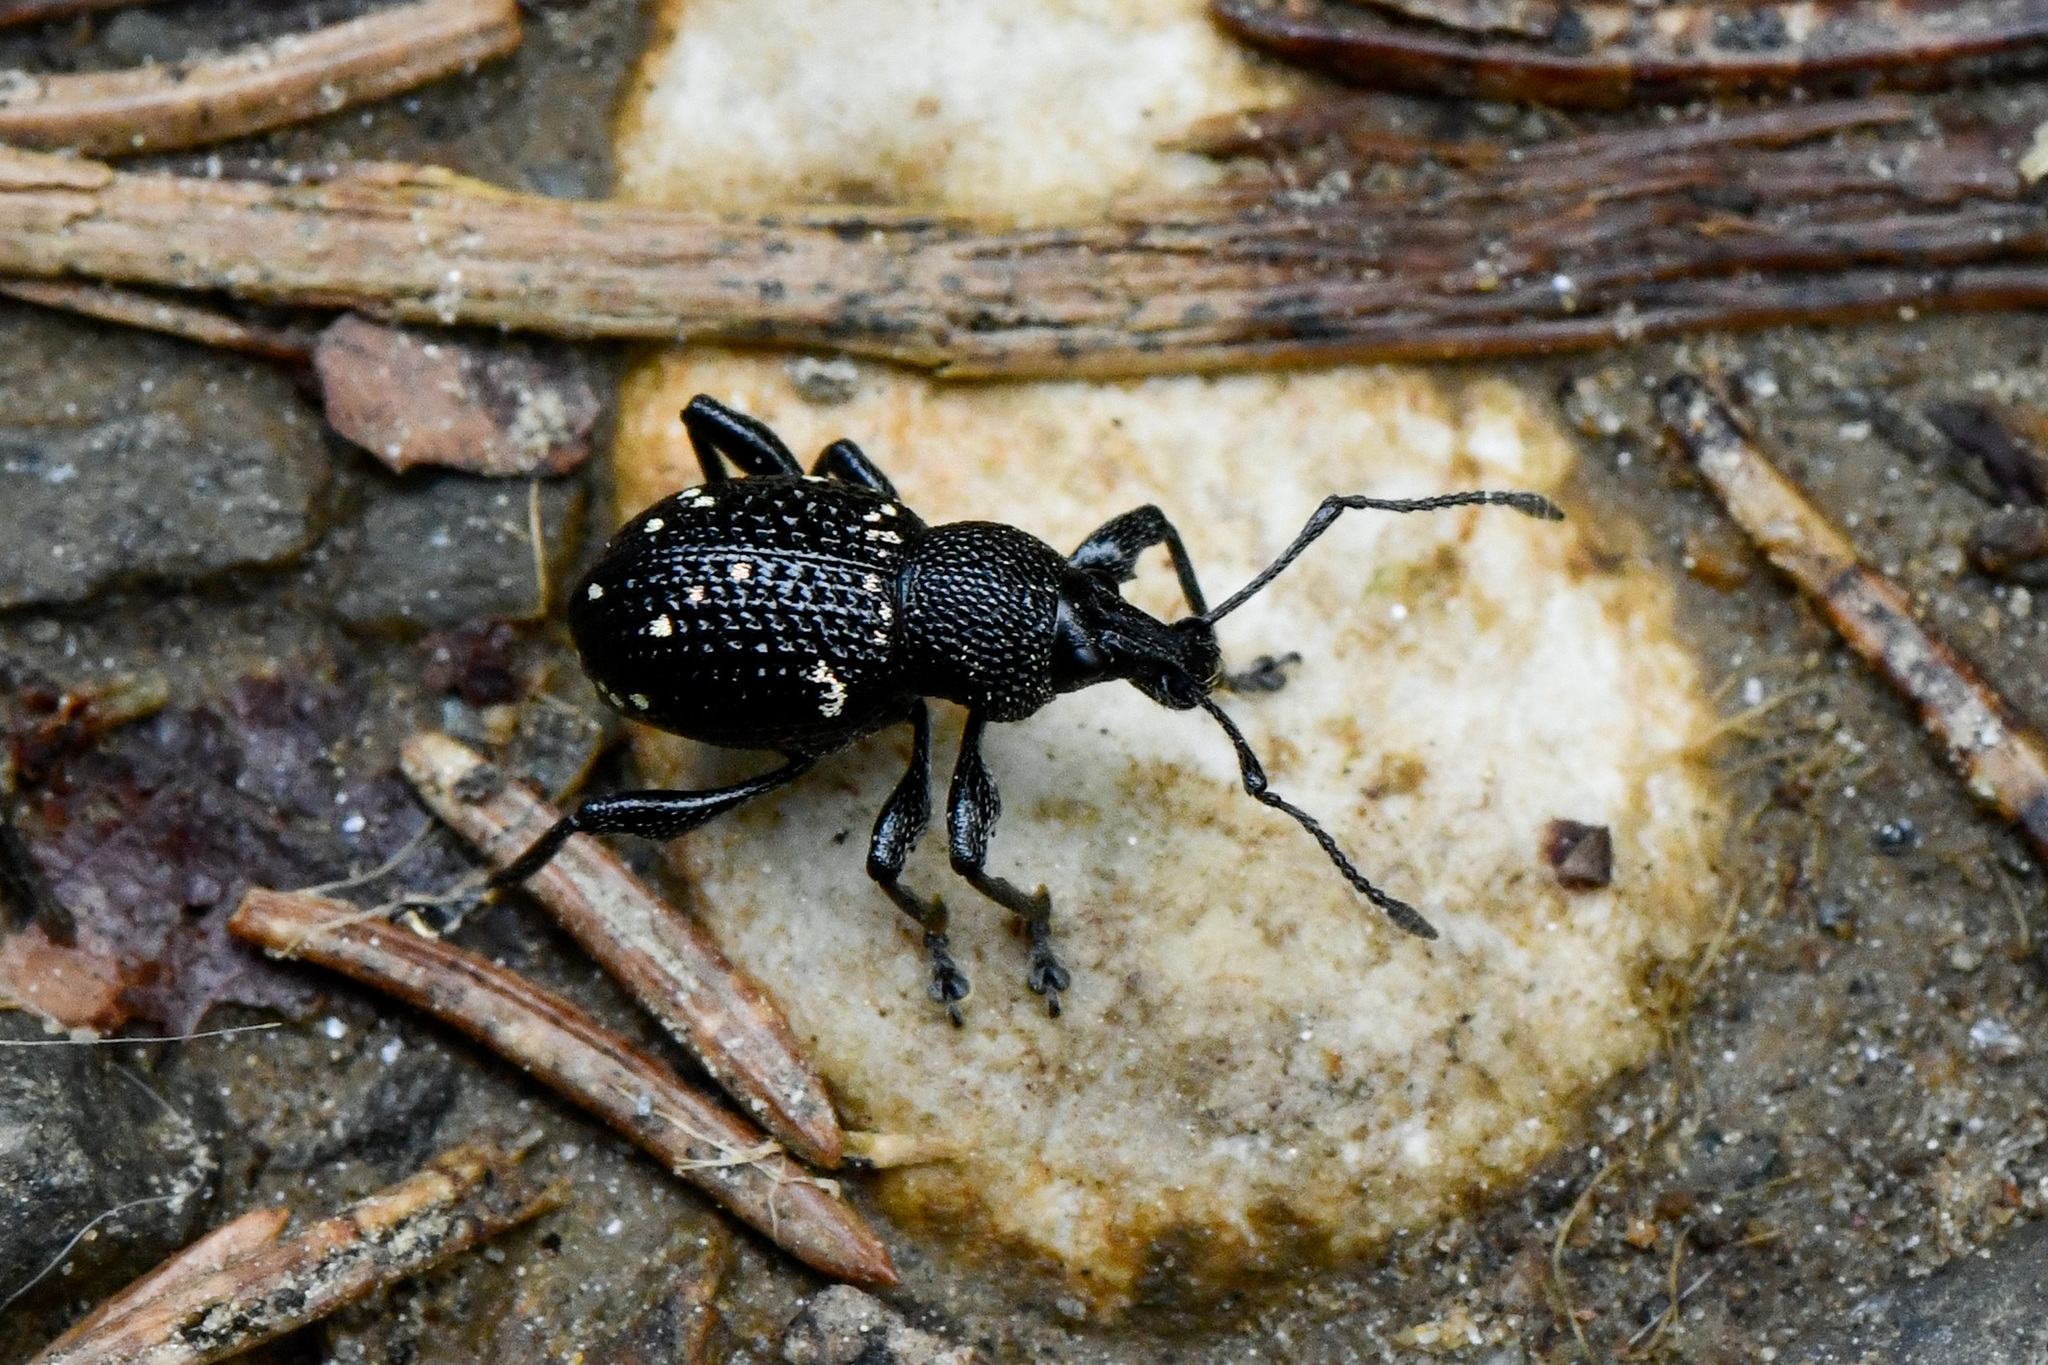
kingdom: Animalia
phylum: Arthropoda
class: Insecta
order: Coleoptera
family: Curculionidae
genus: Otiorhynchus
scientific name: Otiorhynchus gemmatus
